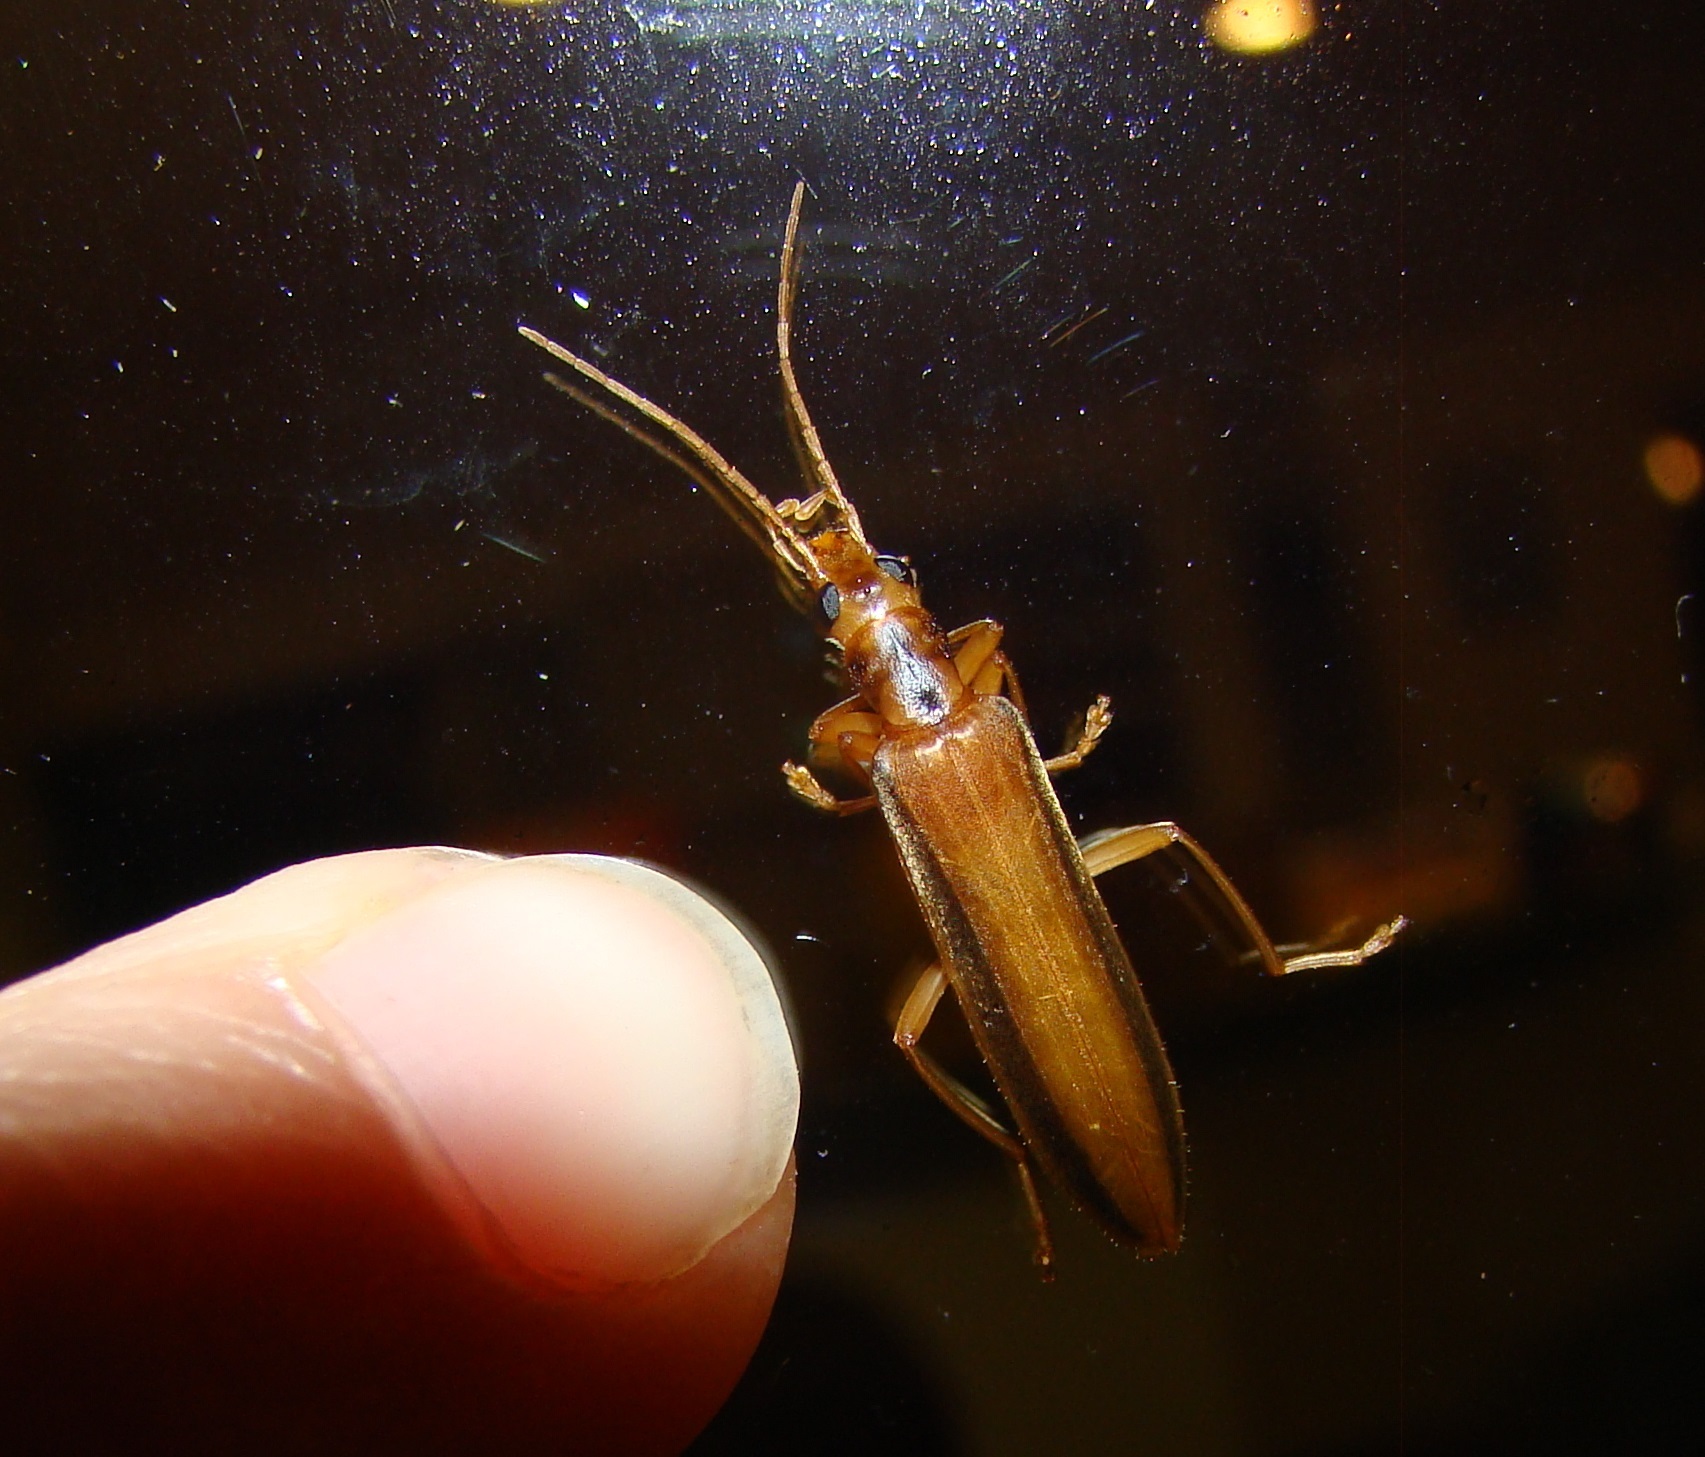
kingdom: Animalia
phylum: Arthropoda
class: Insecta
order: Coleoptera
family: Oedemeridae
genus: Thelyphassa
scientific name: Thelyphassa
